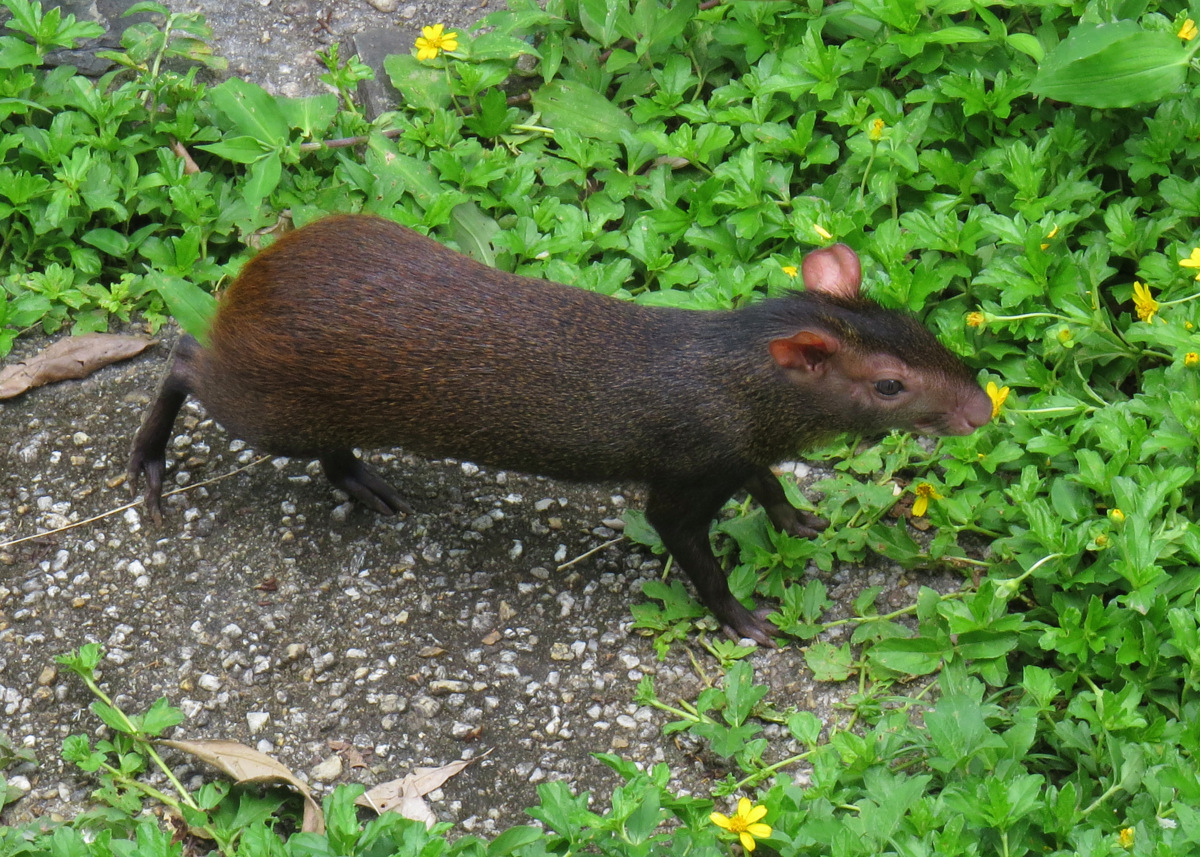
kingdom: Animalia
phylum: Chordata
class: Mammalia
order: Rodentia
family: Dasyproctidae
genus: Dasyprocta
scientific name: Dasyprocta leporina
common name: Red-rumped agouti
